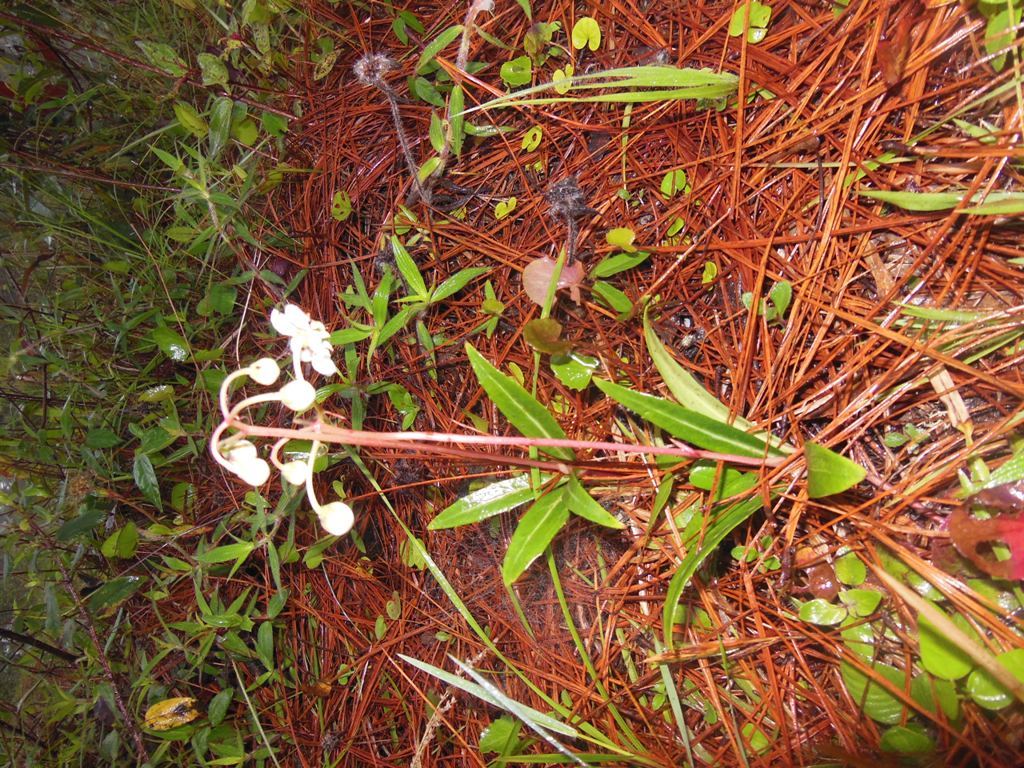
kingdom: Plantae
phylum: Tracheophyta
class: Magnoliopsida
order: Ericales
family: Ericaceae
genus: Chimaphila
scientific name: Chimaphila umbellata
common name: Pipsissewa
